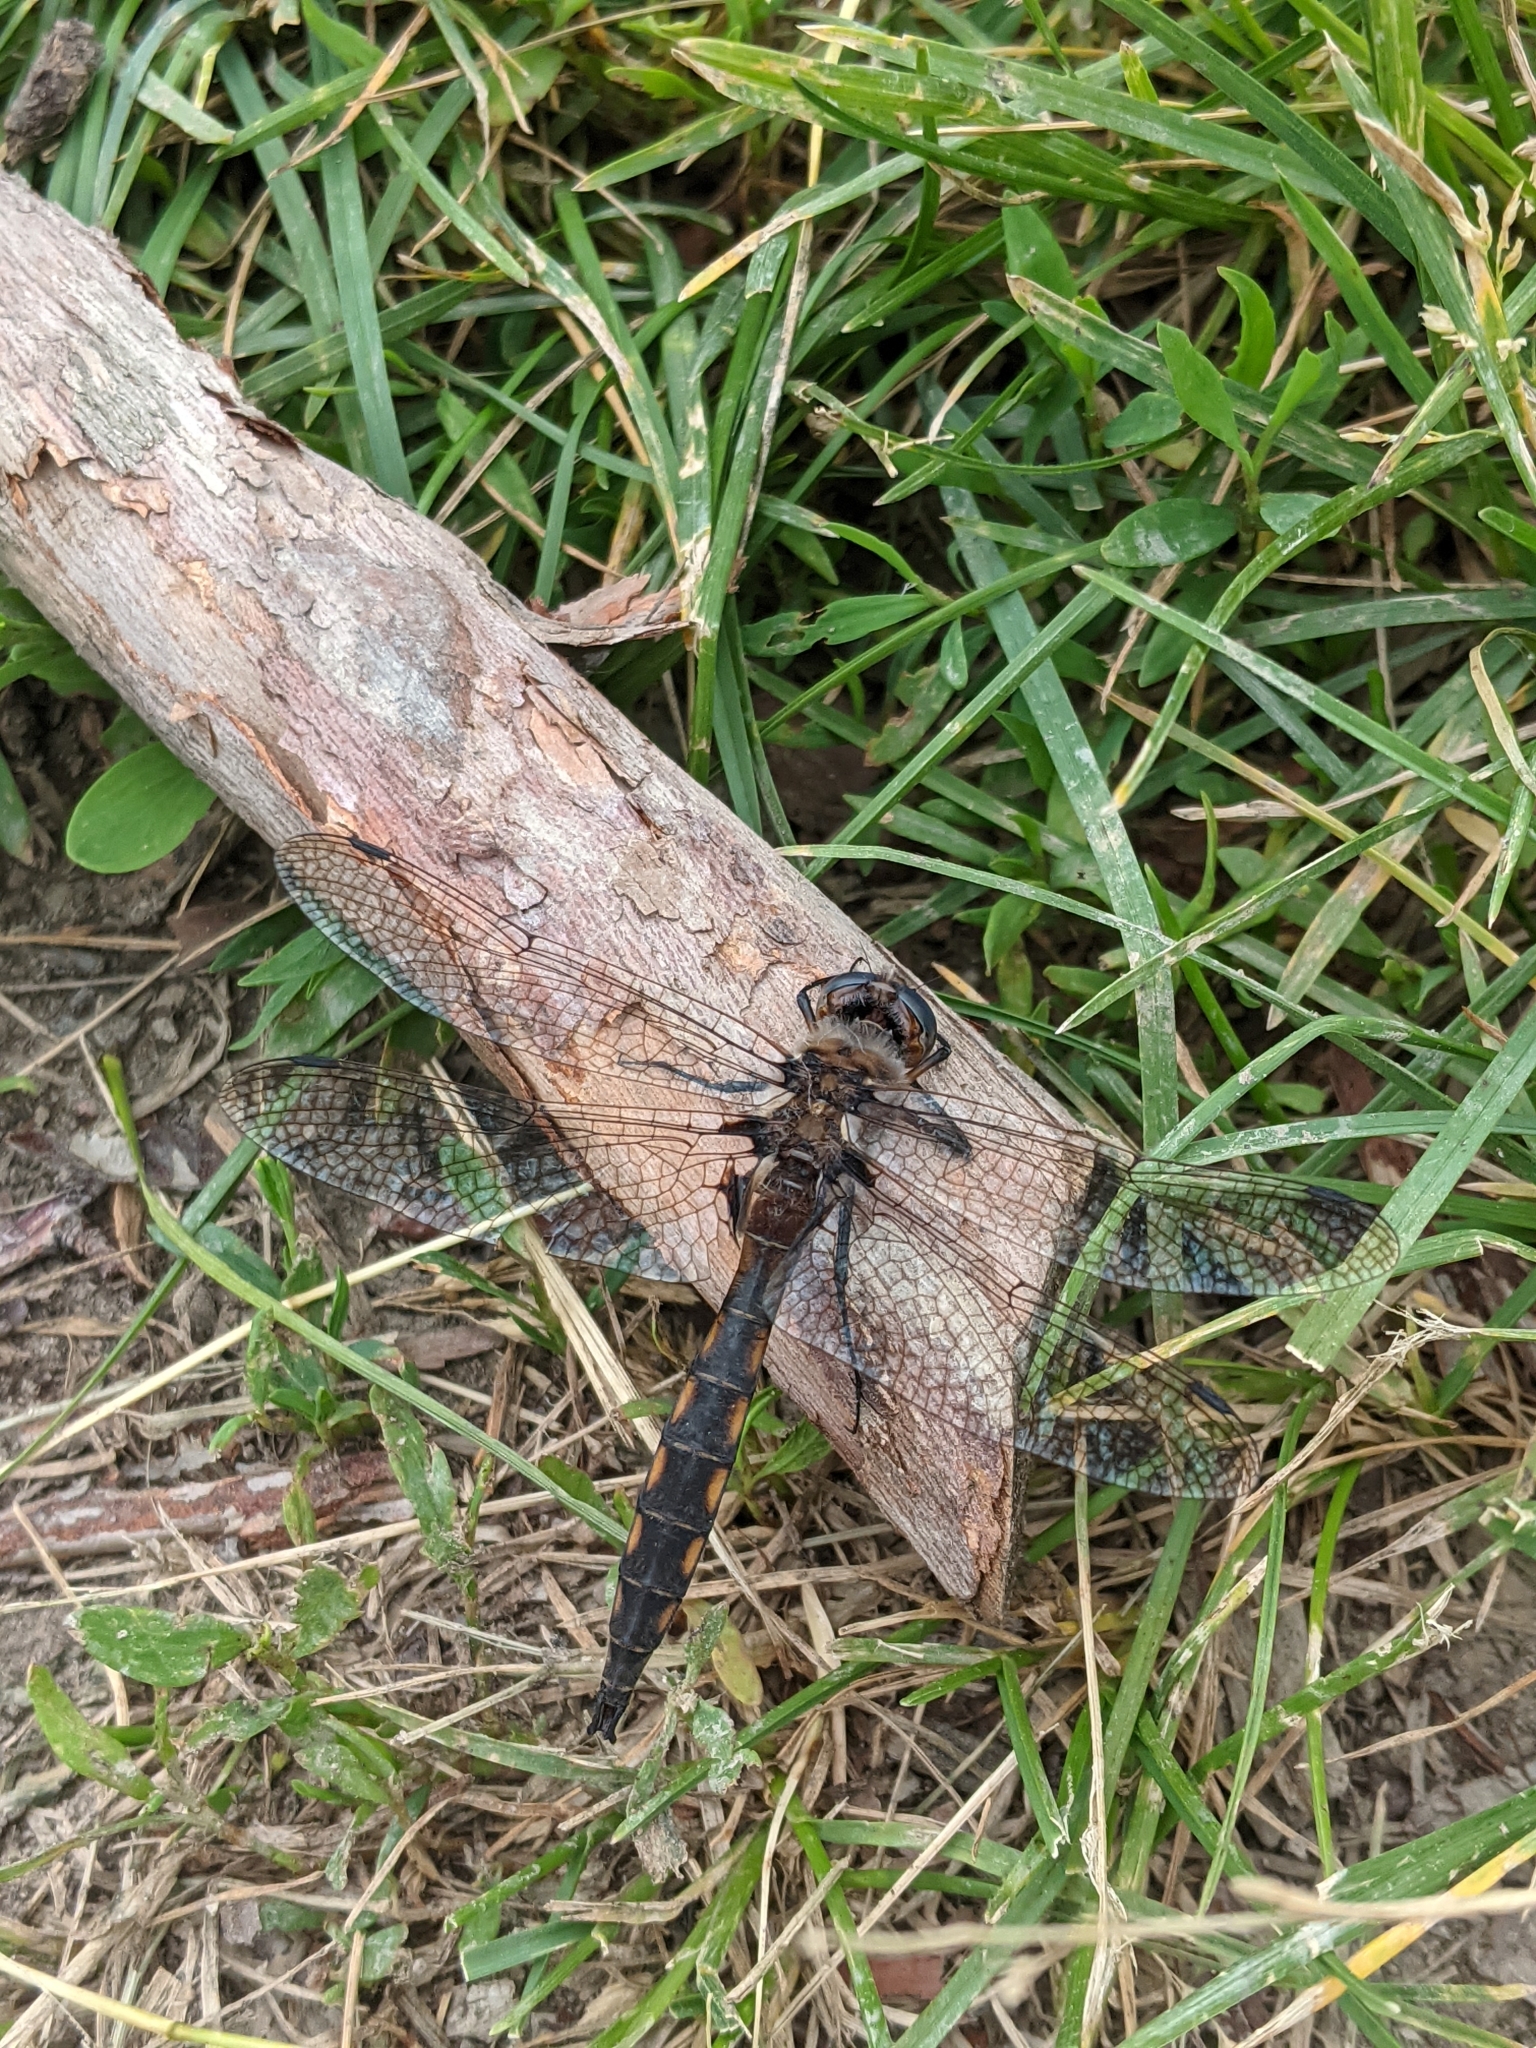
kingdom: Animalia
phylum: Arthropoda
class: Insecta
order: Odonata
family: Corduliidae
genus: Epitheca
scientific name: Epitheca canis
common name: Beaverpond baskettail
